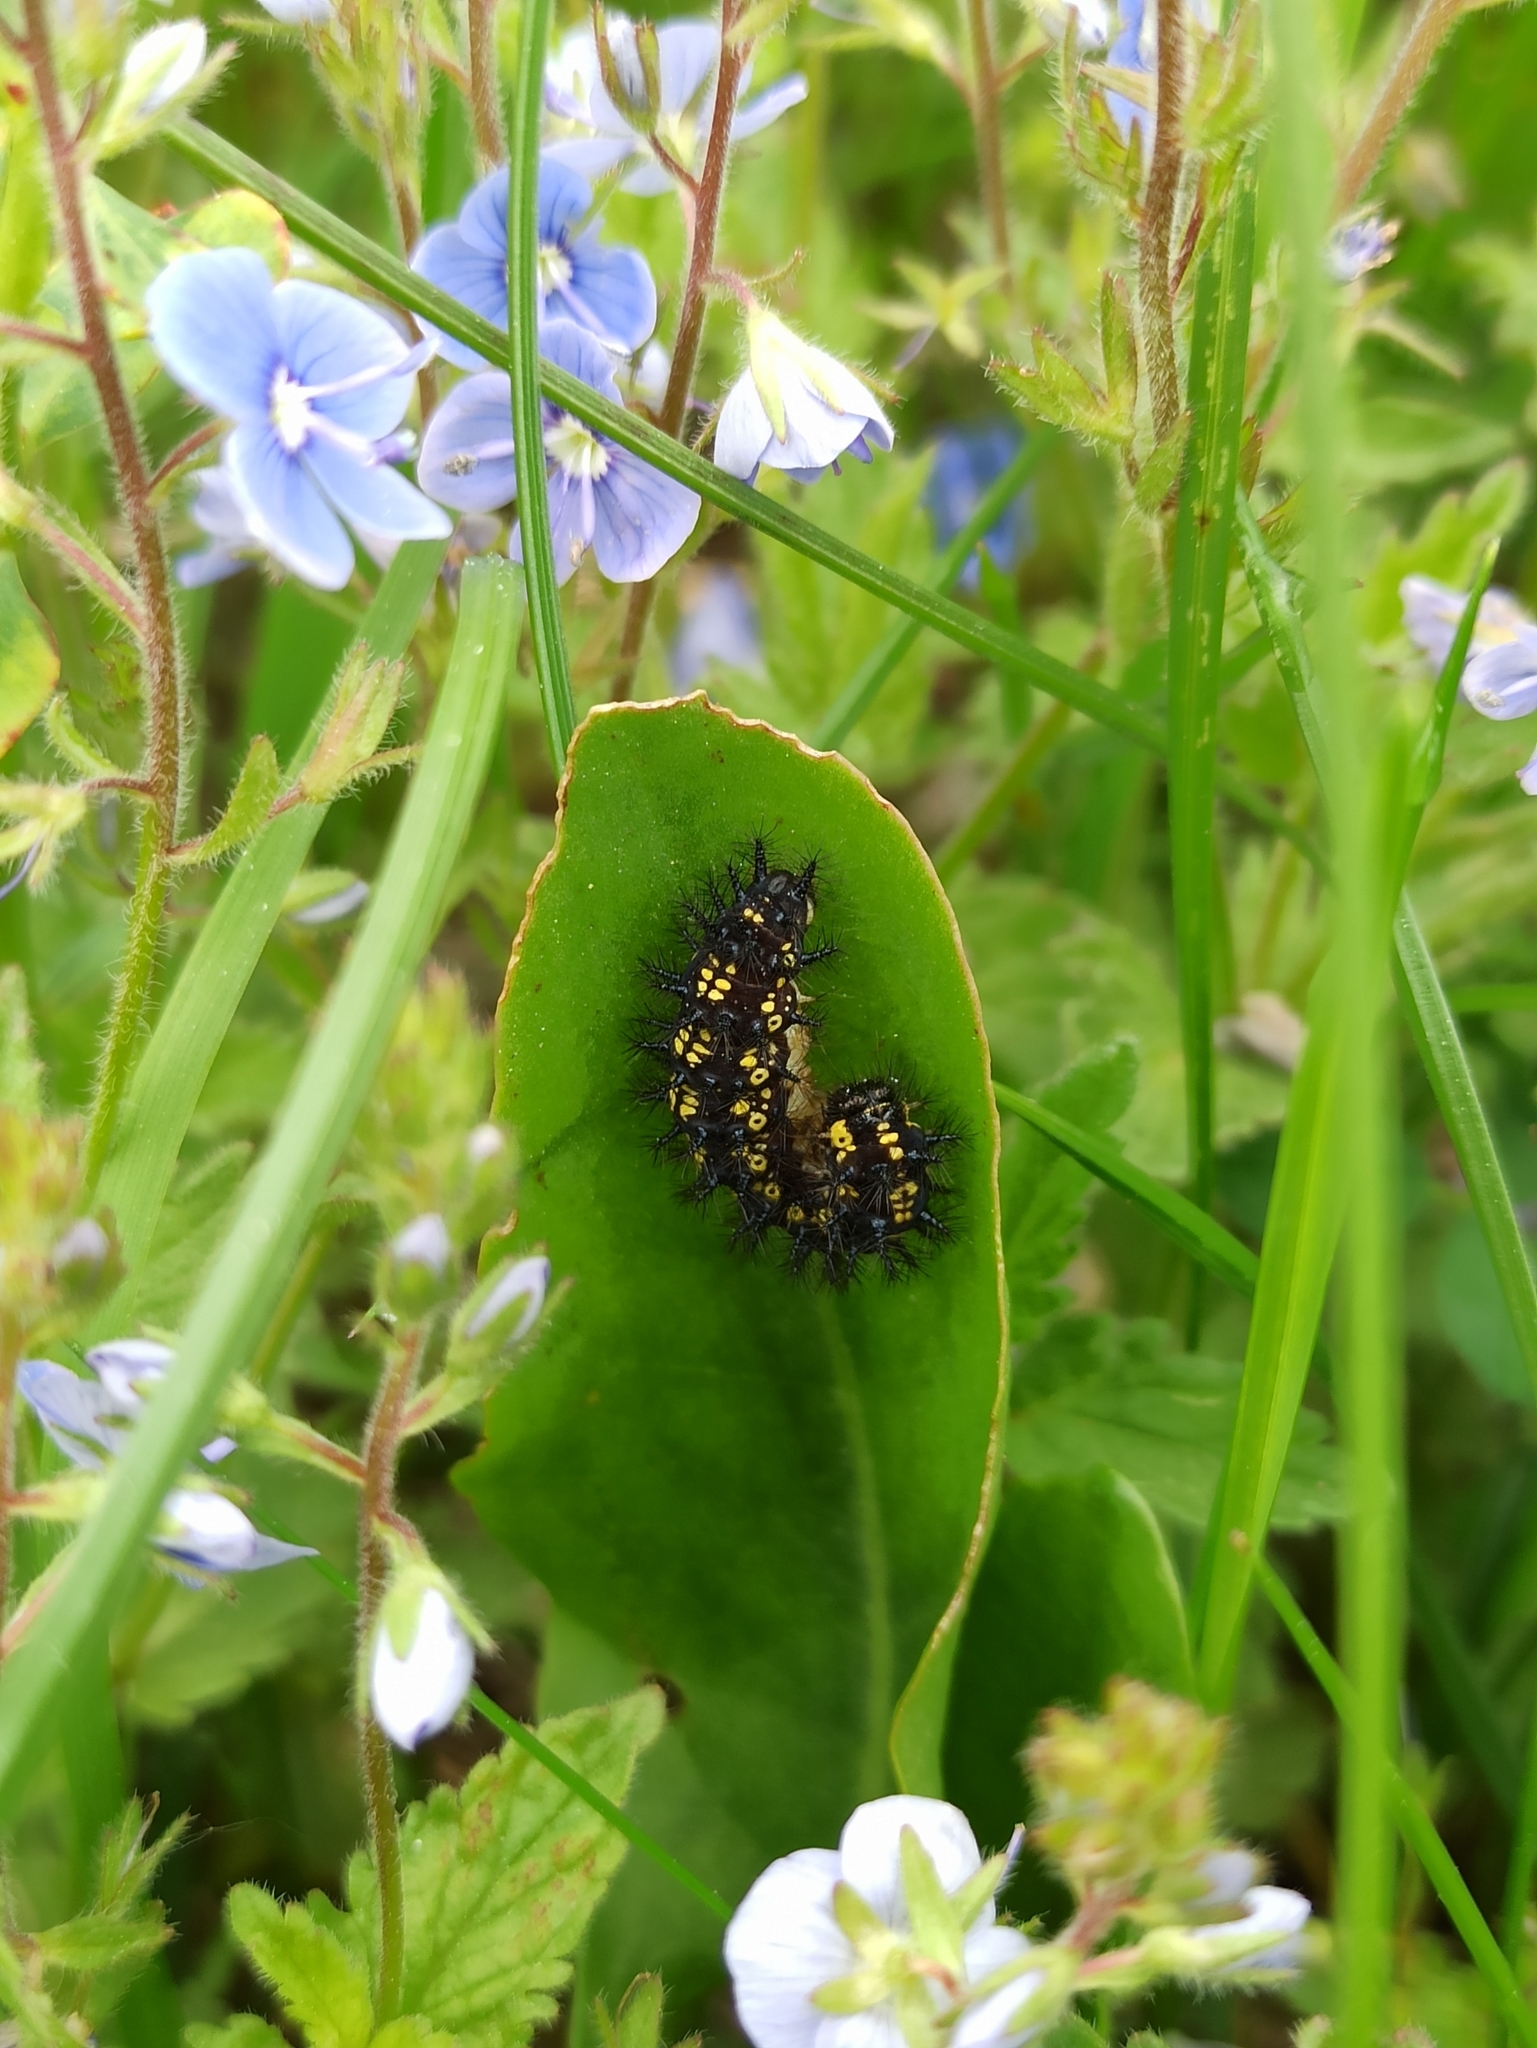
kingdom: Animalia
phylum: Arthropoda
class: Insecta
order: Lepidoptera
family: Nymphalidae
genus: Euphydryas
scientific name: Euphydryas maturna
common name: Scarce fritillary
